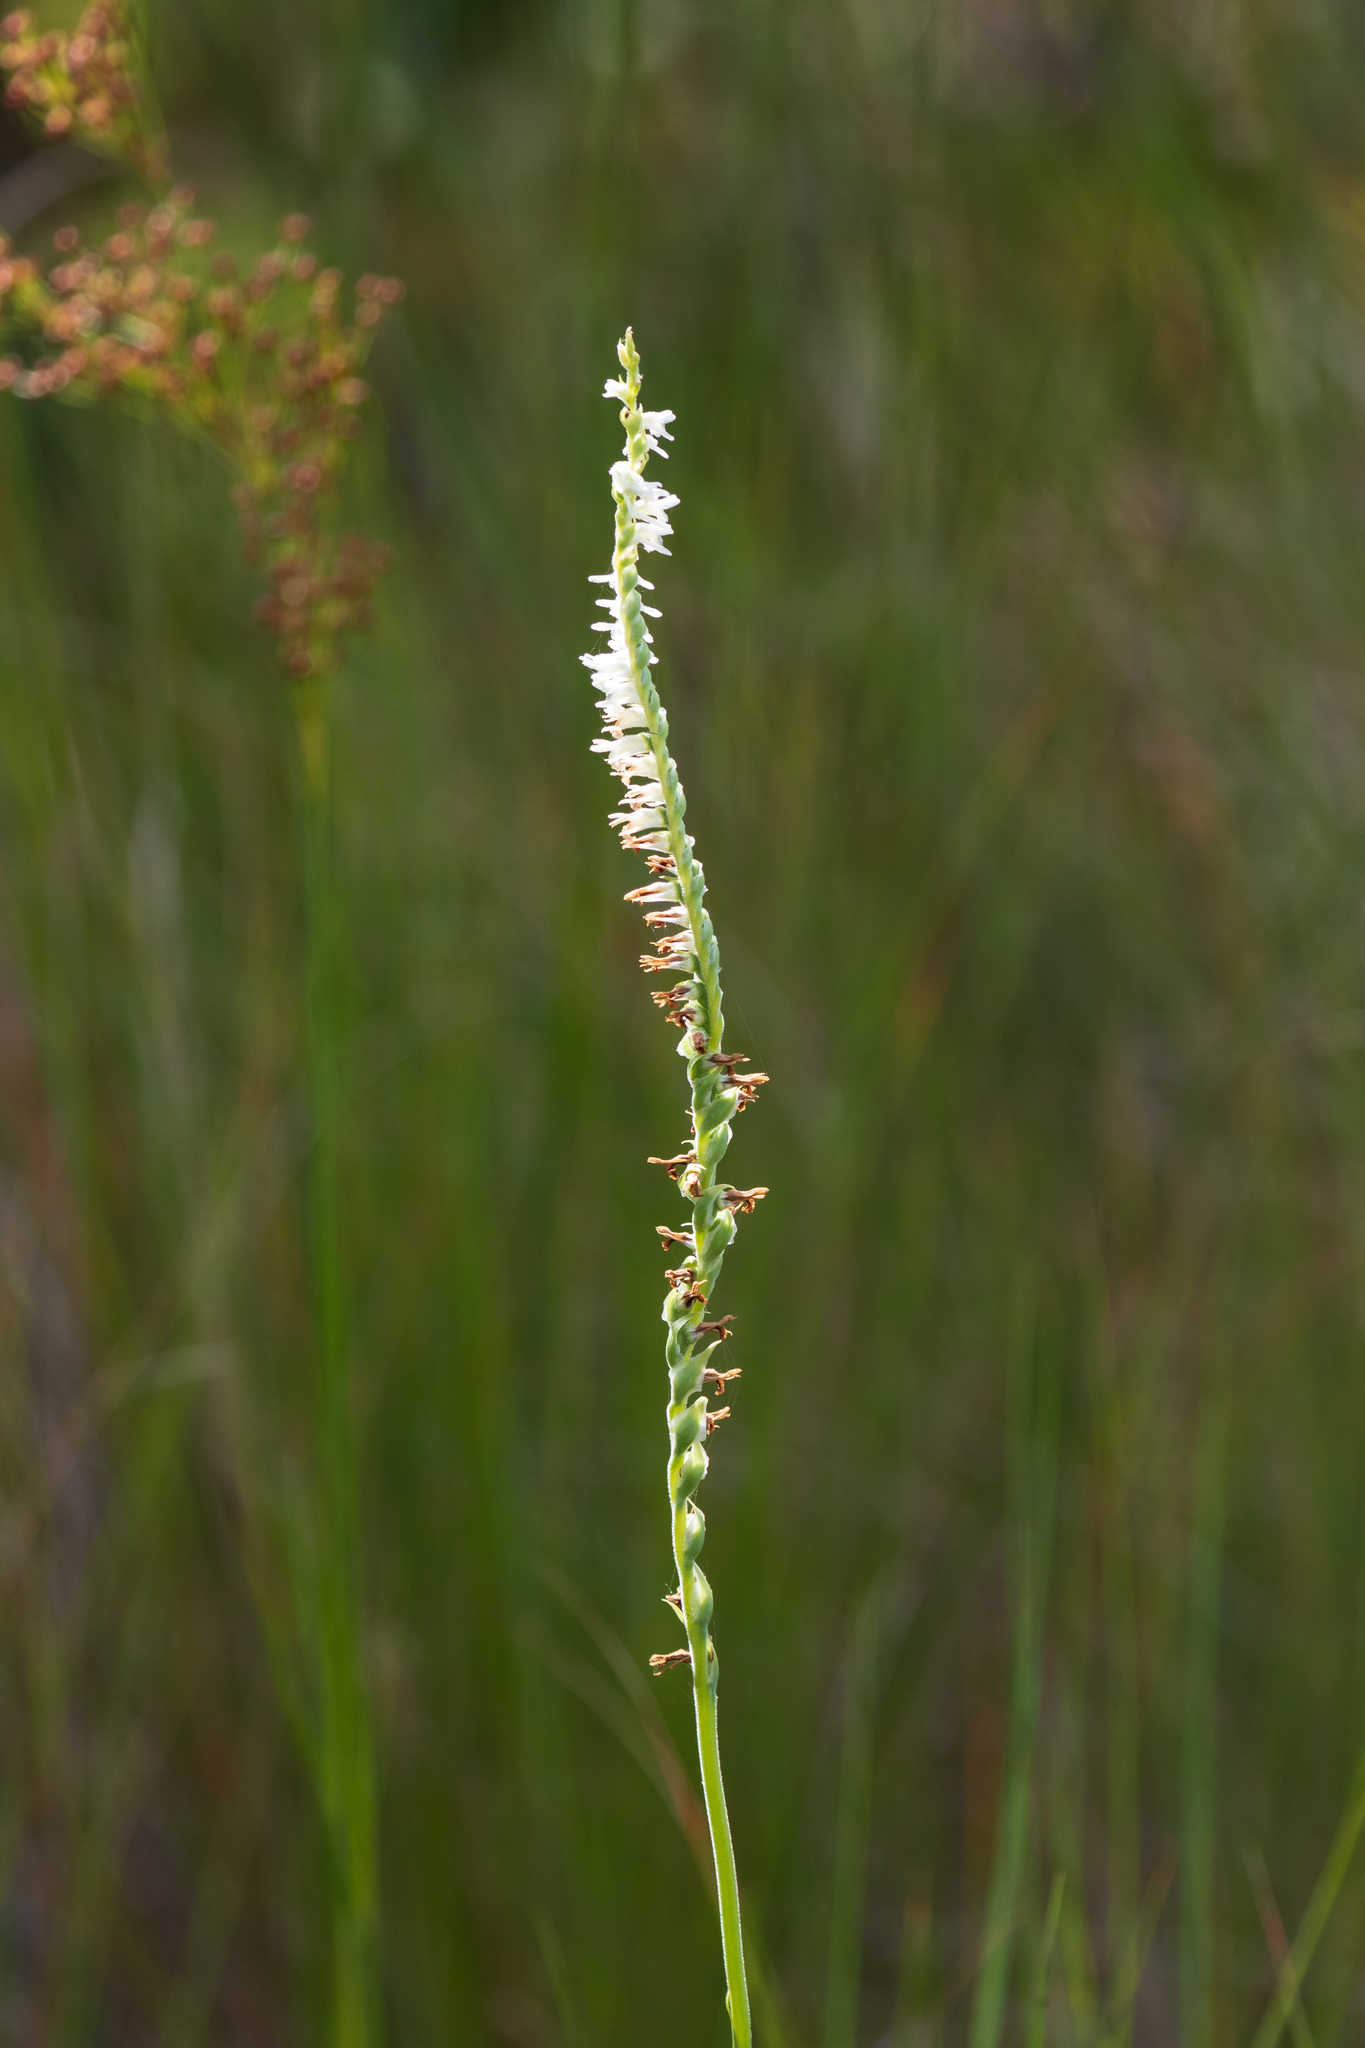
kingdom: Plantae
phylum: Tracheophyta
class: Liliopsida
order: Asparagales
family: Orchidaceae
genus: Spiranthes
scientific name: Spiranthes vernalis
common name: Spring ladies'-tresses
